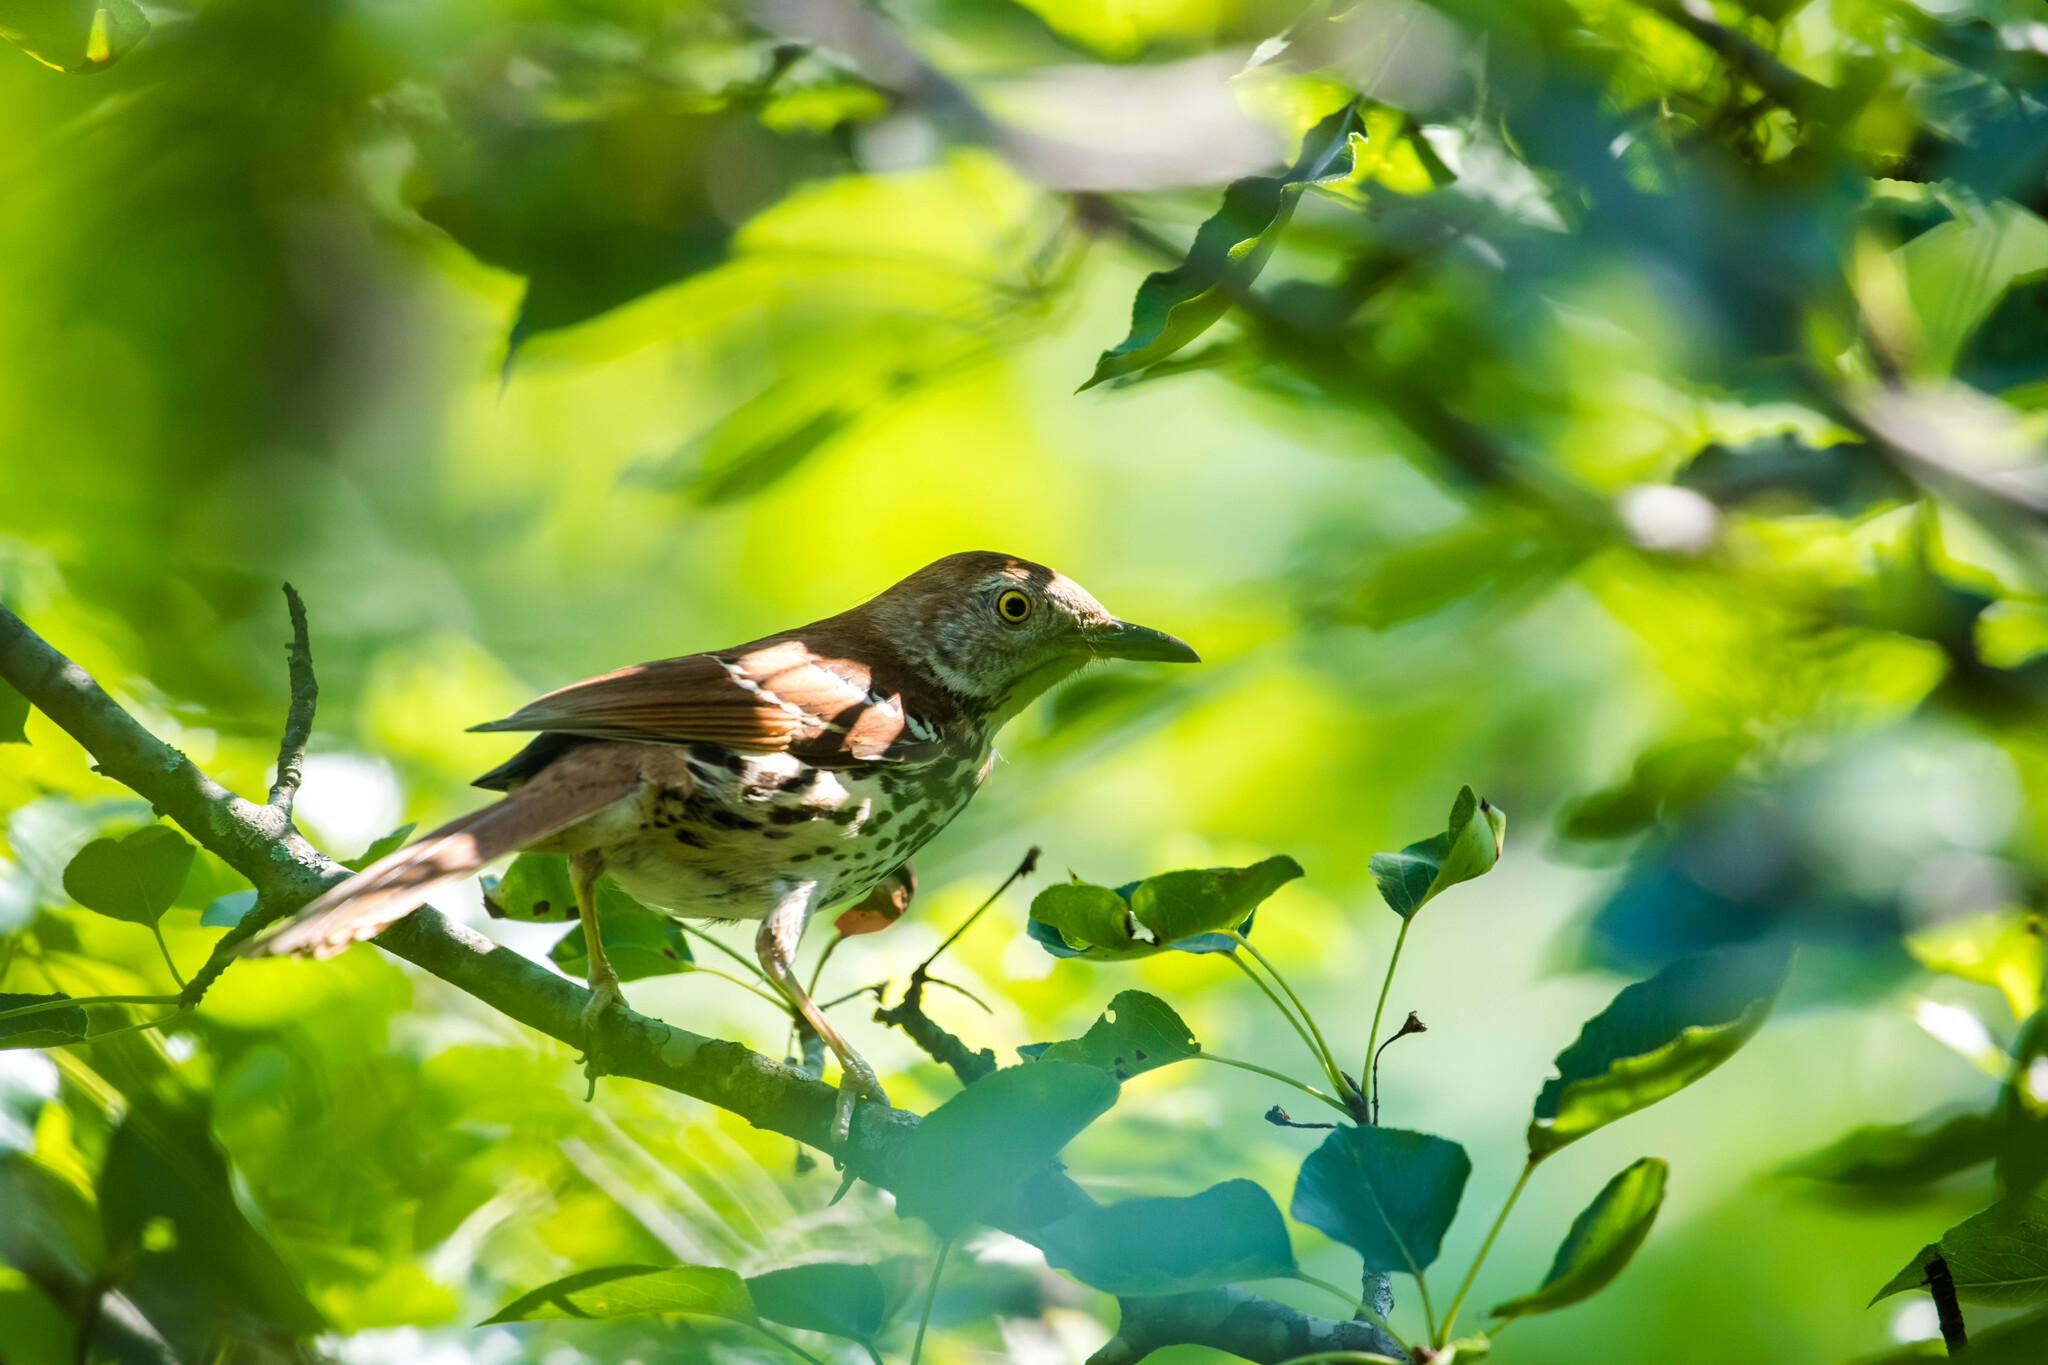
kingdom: Animalia
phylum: Chordata
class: Aves
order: Passeriformes
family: Mimidae
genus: Toxostoma
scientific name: Toxostoma rufum
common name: Brown thrasher
